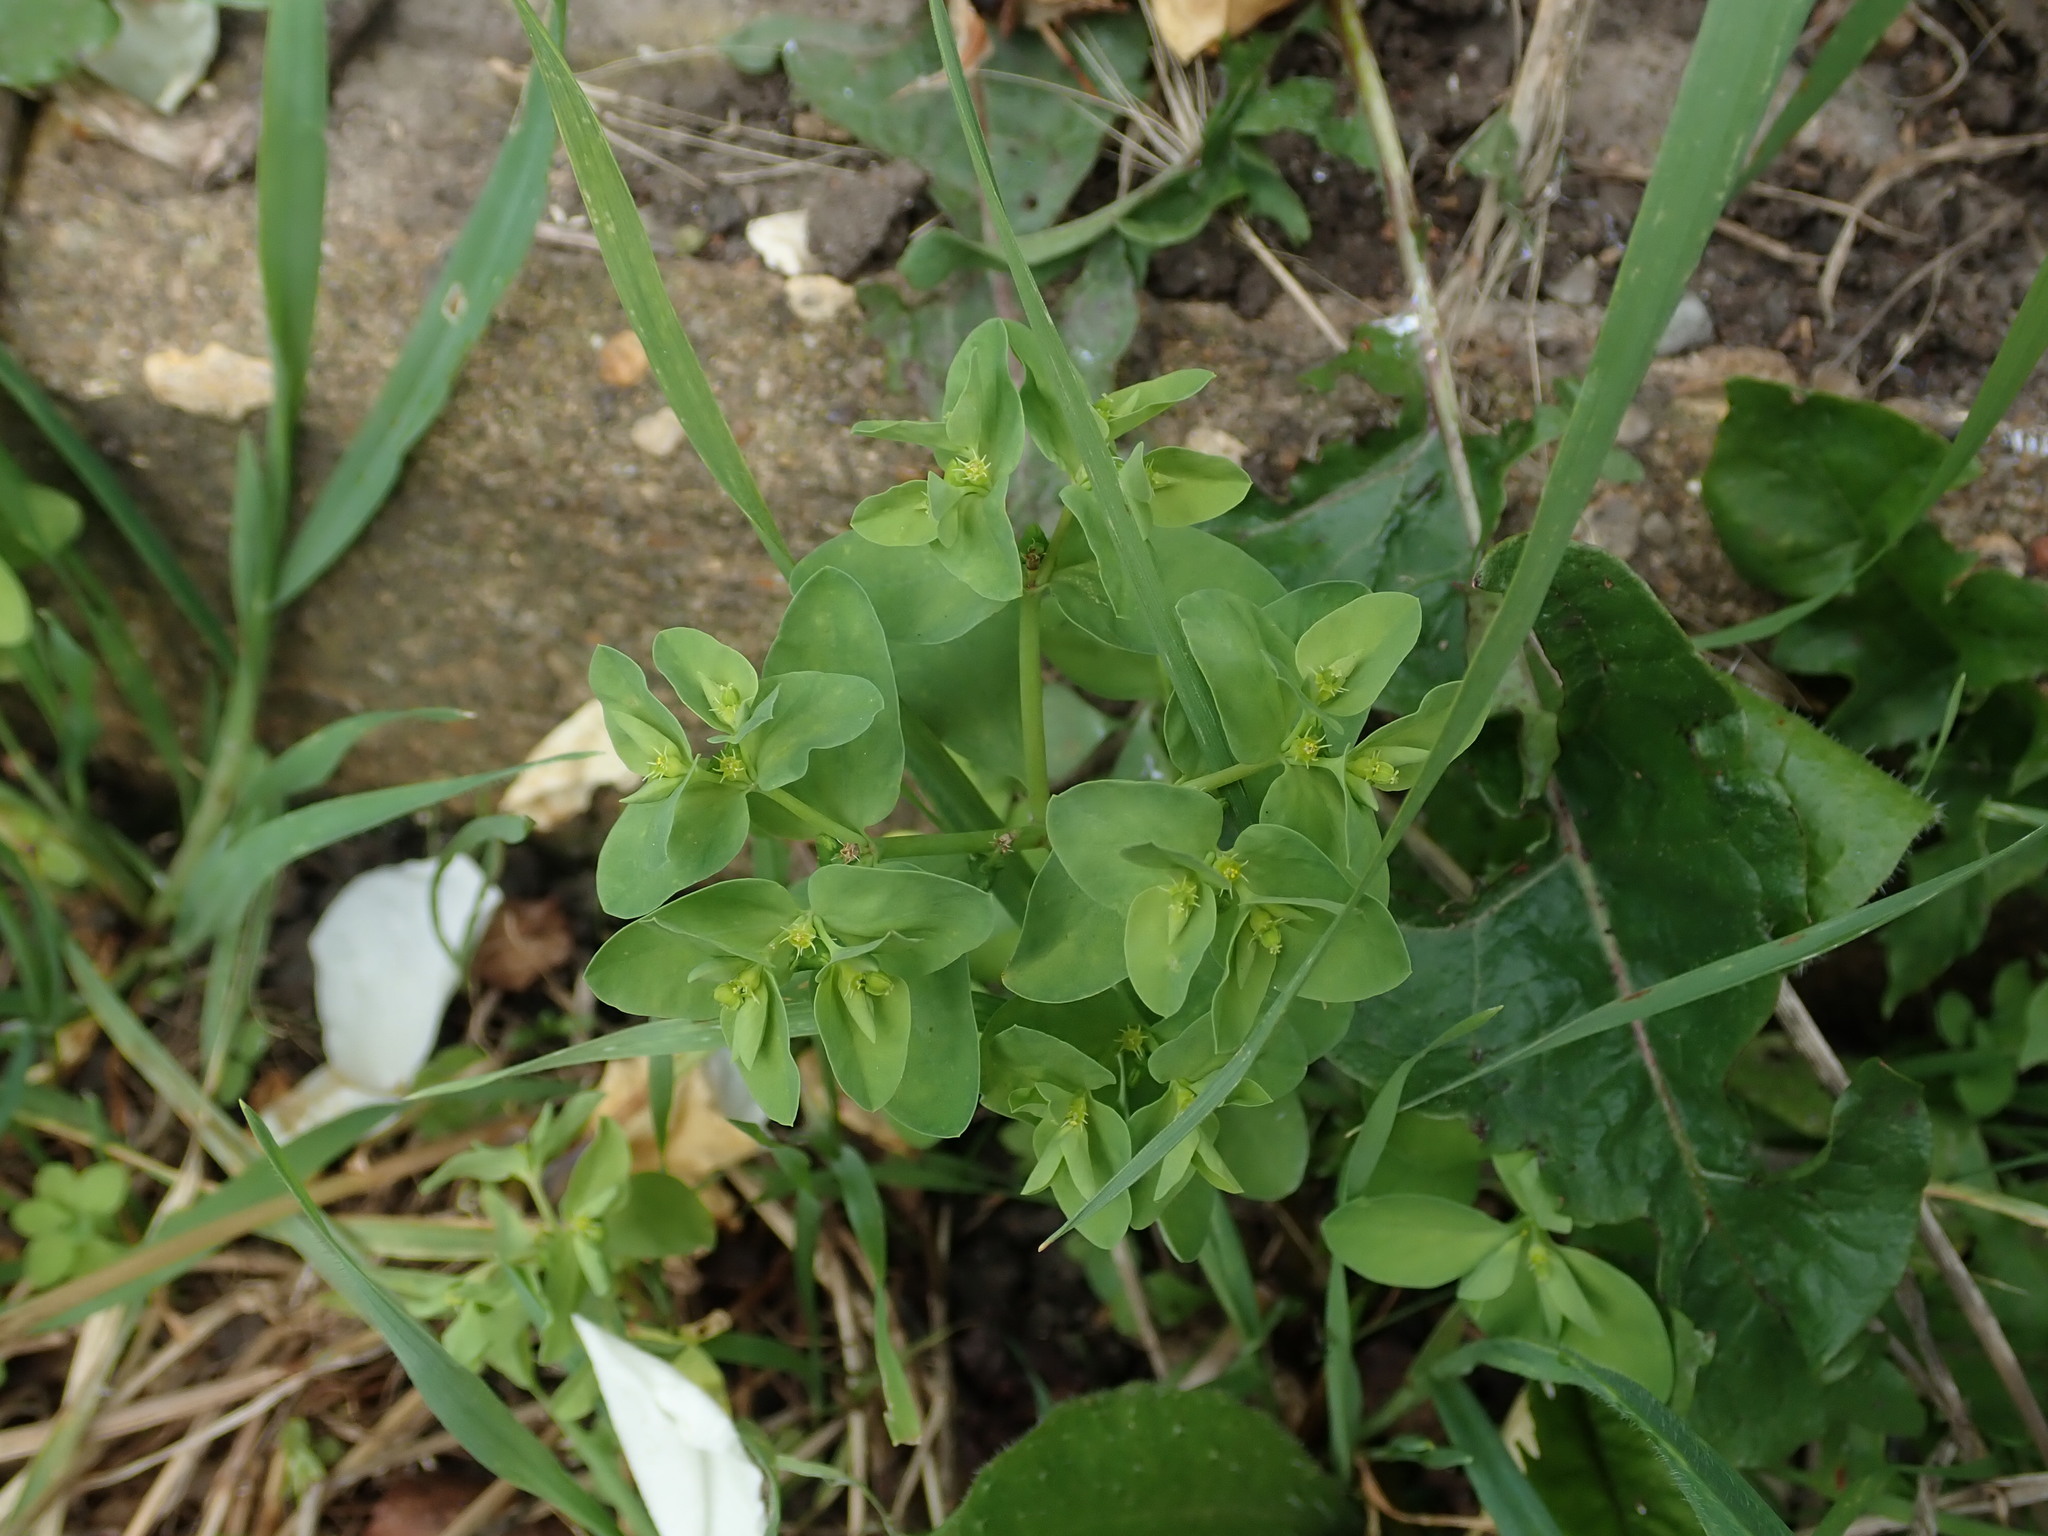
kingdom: Plantae
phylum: Tracheophyta
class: Magnoliopsida
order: Malpighiales
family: Euphorbiaceae
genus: Euphorbia
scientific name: Euphorbia peplus
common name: Petty spurge
